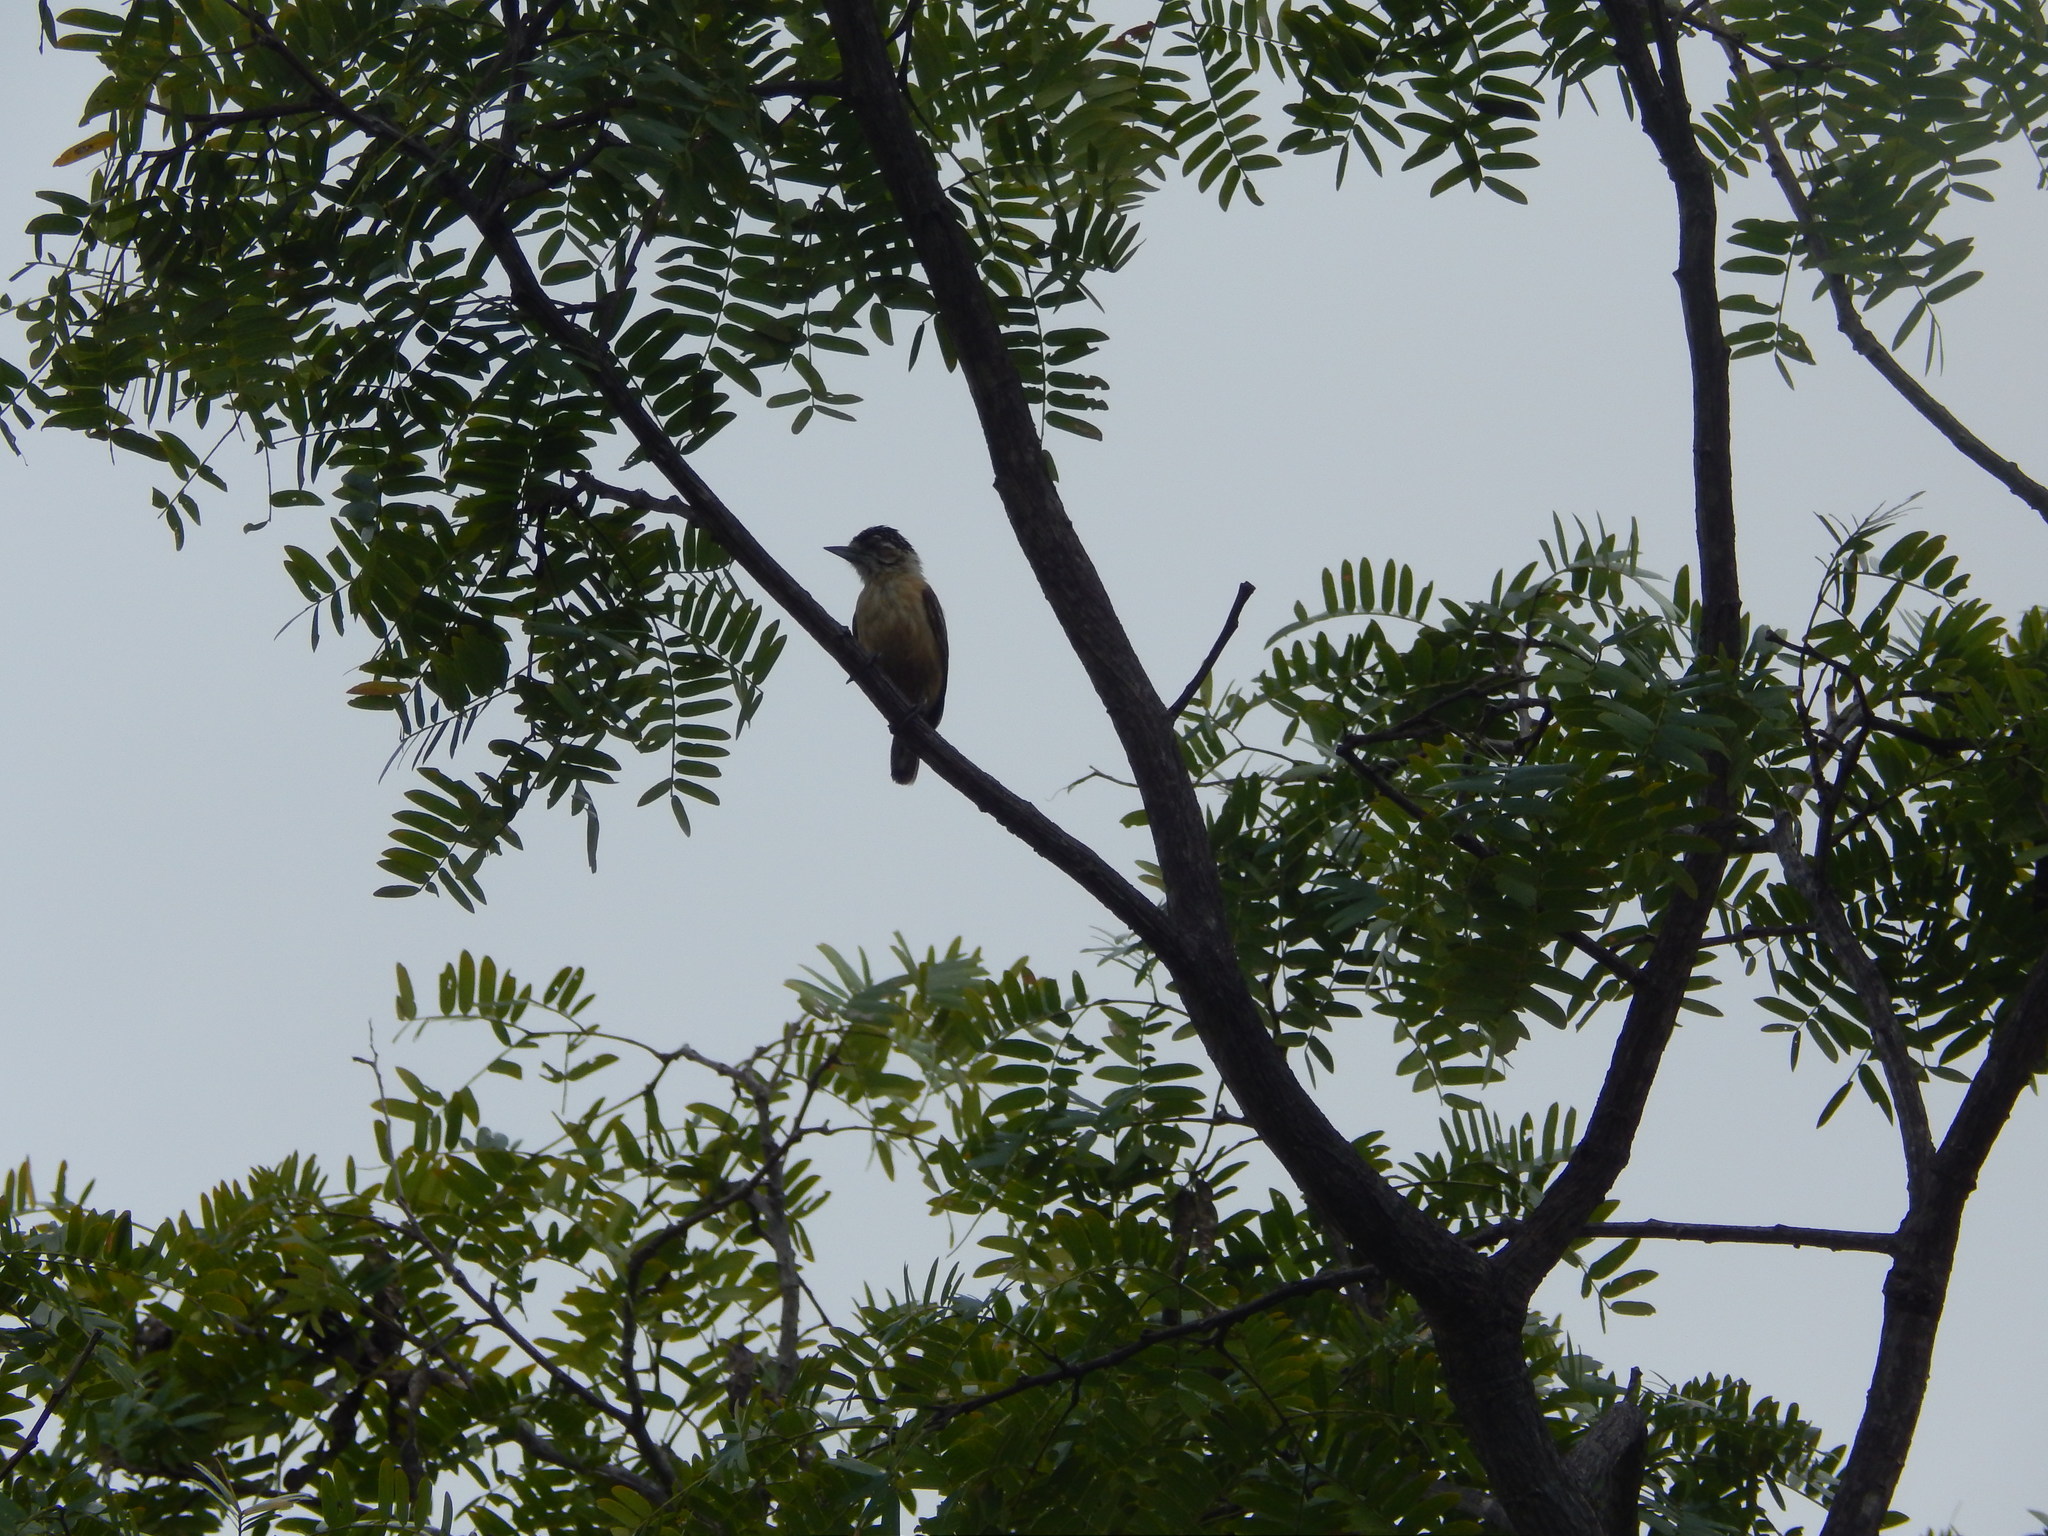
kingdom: Animalia
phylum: Chordata
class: Aves
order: Piciformes
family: Picidae
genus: Picumnus
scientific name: Picumnus limae
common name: Ochraceous piculet
